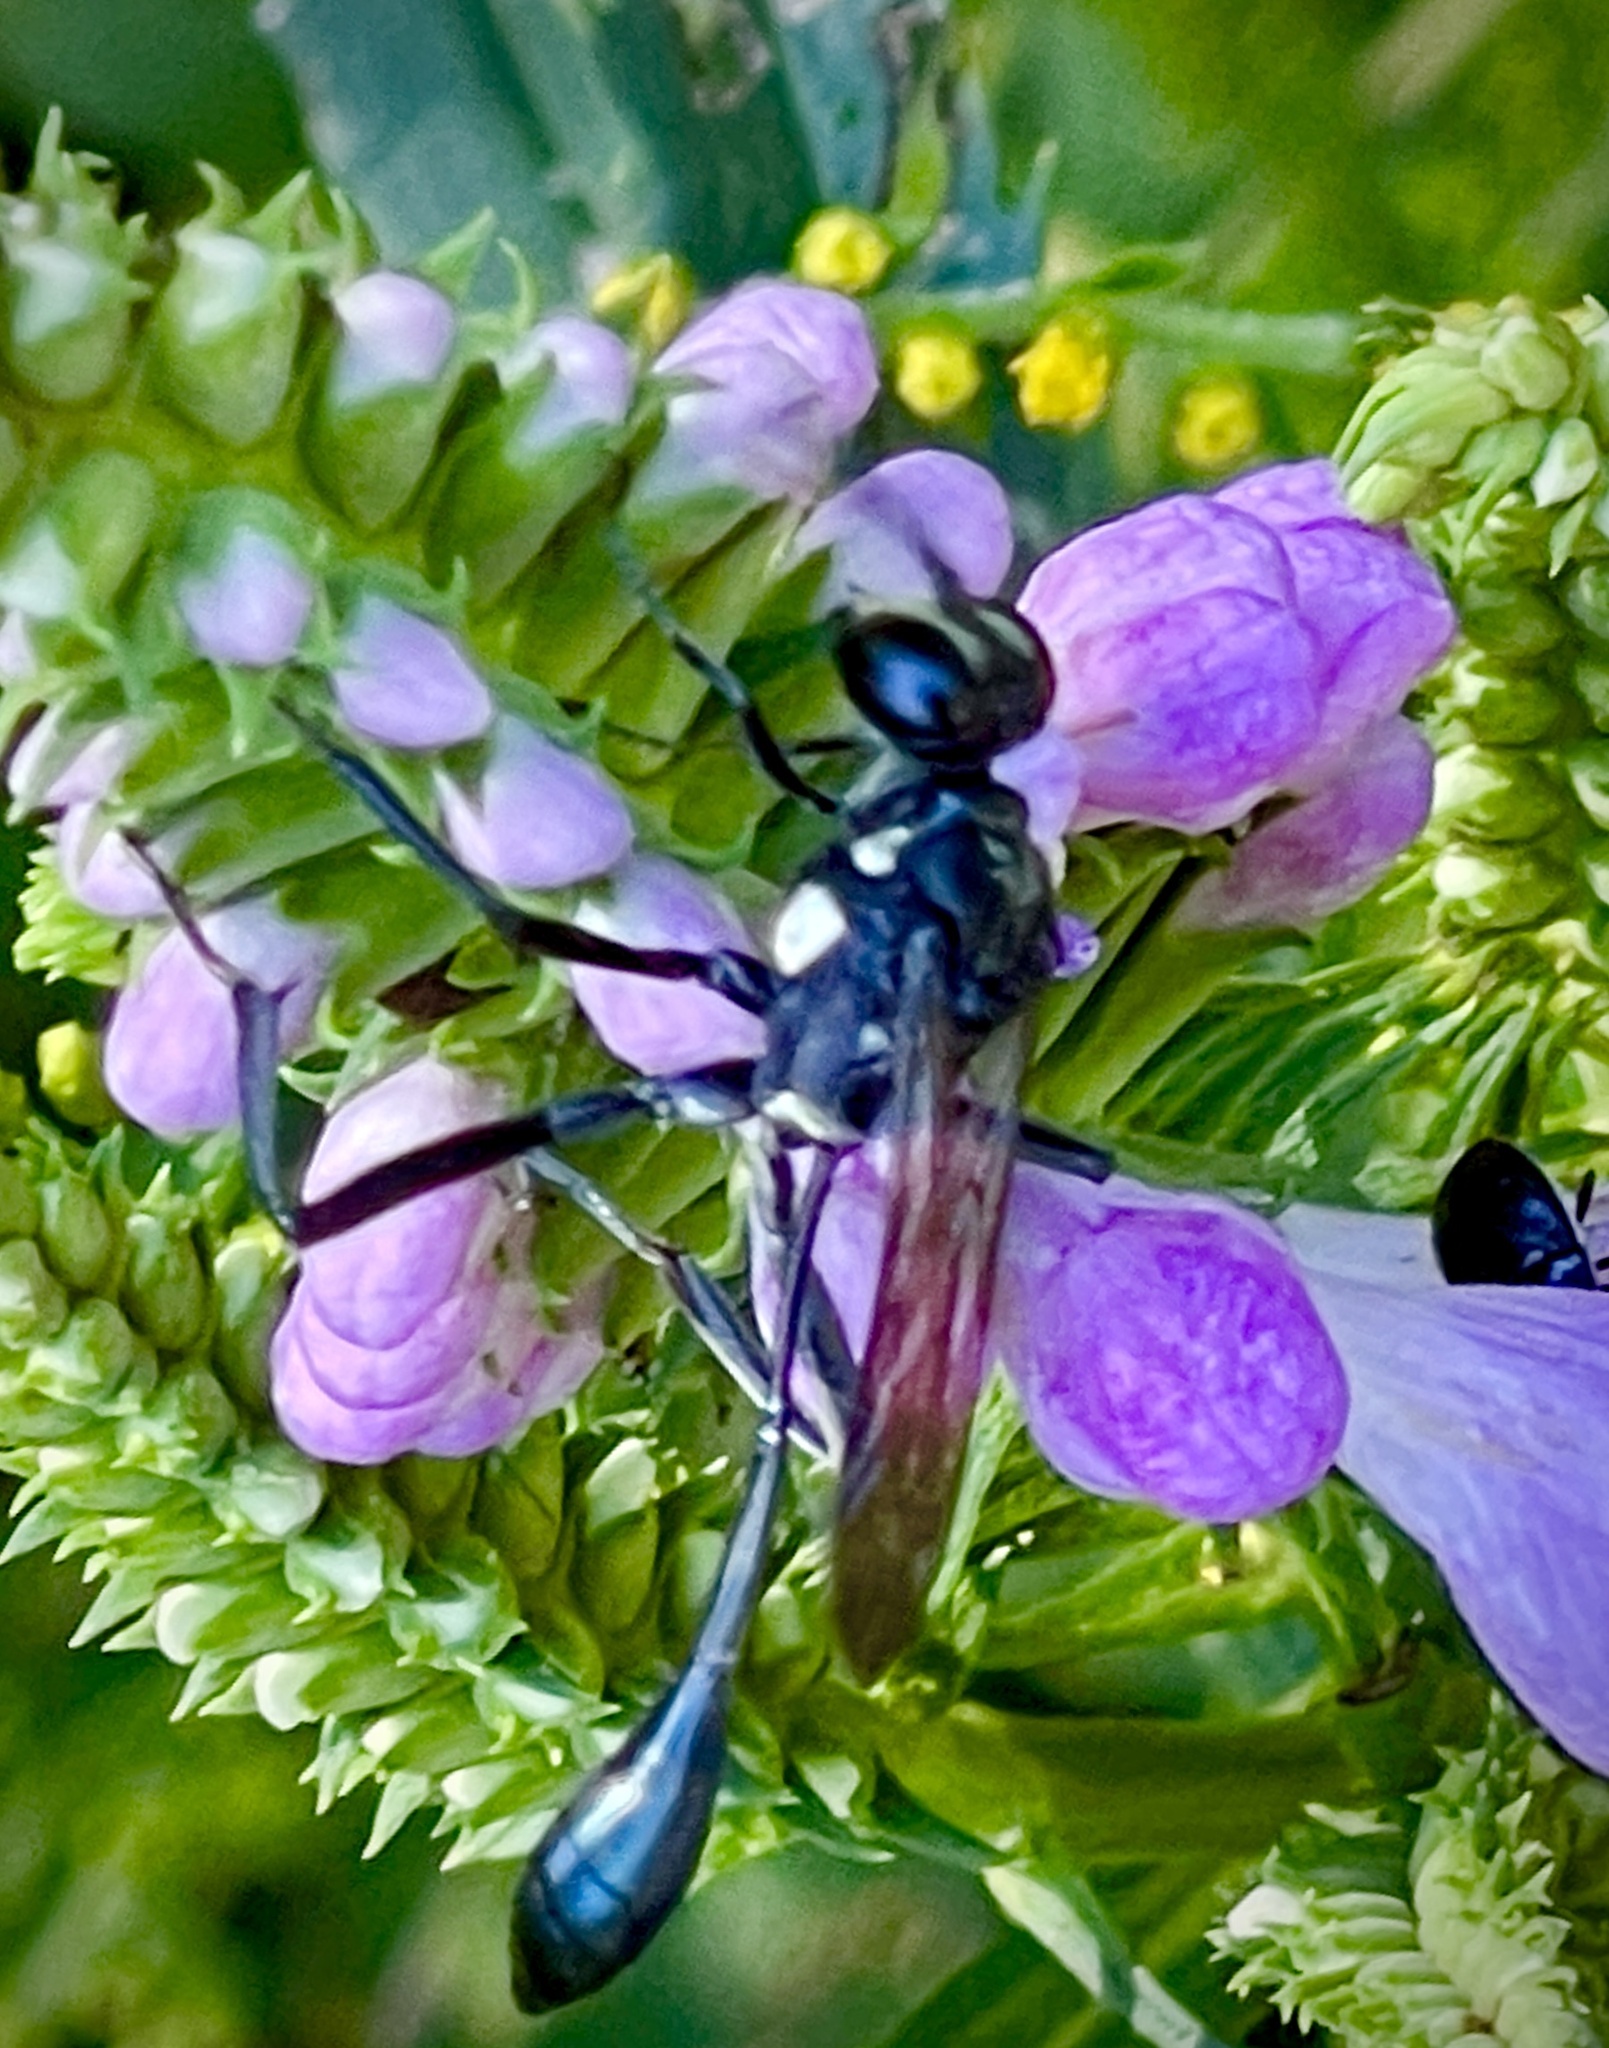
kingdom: Animalia
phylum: Arthropoda
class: Insecta
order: Hymenoptera
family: Sphecidae
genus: Eremnophila
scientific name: Eremnophila aureonotata
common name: Gold-marked thread-waisted wasp
